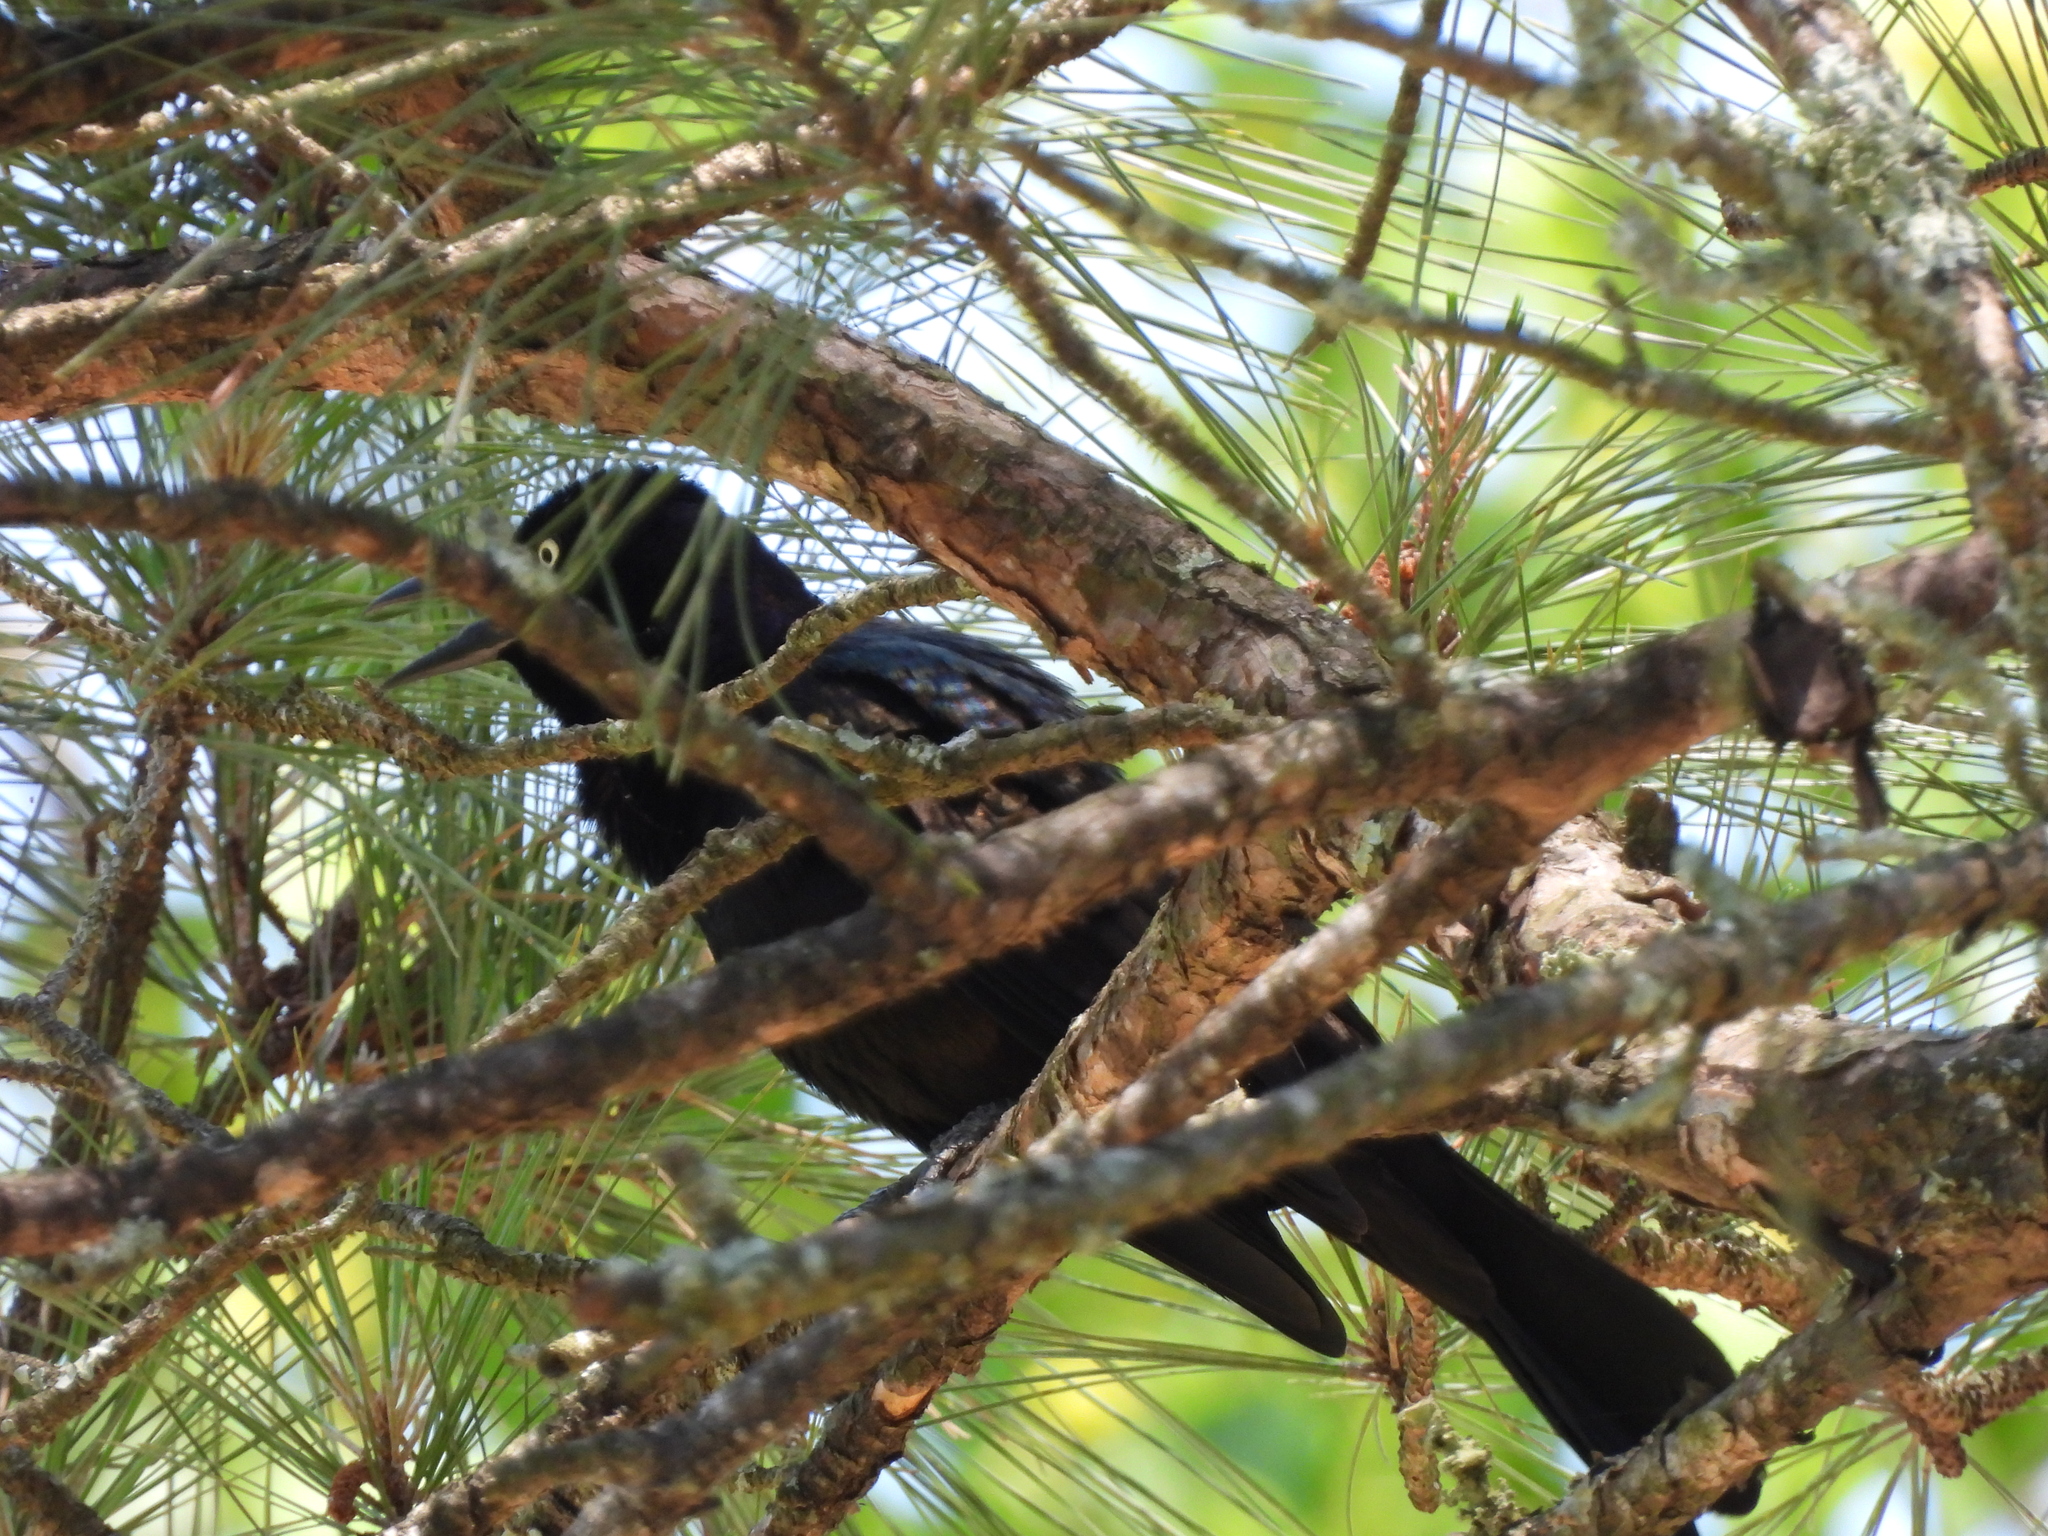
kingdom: Animalia
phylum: Chordata
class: Aves
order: Passeriformes
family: Icteridae
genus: Quiscalus
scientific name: Quiscalus quiscula
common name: Common grackle
